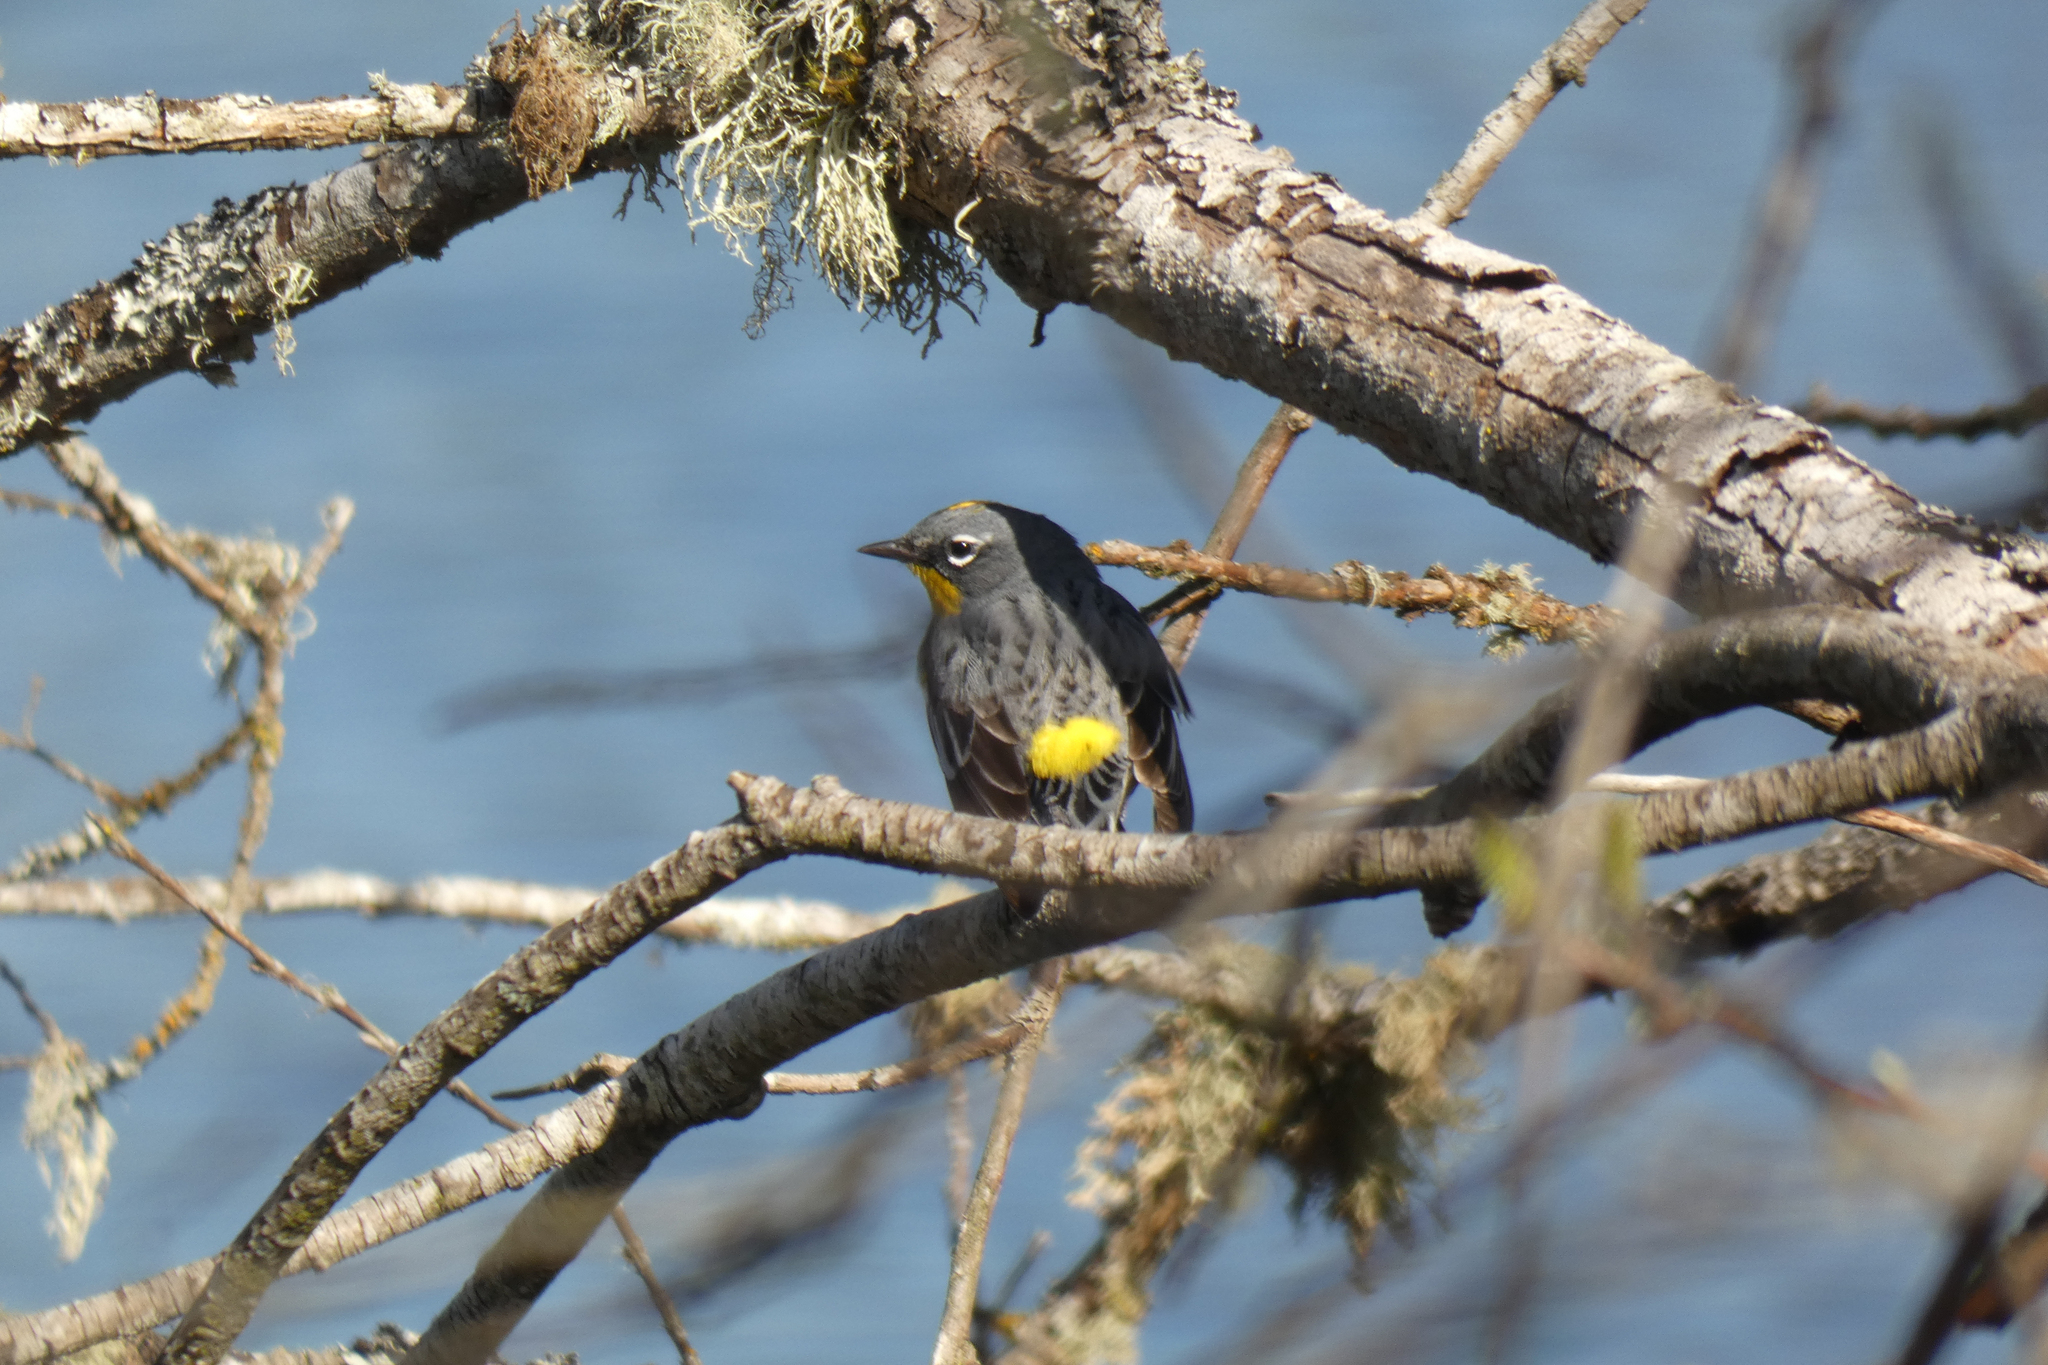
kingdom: Animalia
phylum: Chordata
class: Aves
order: Passeriformes
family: Parulidae
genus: Setophaga
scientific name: Setophaga coronata
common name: Myrtle warbler
